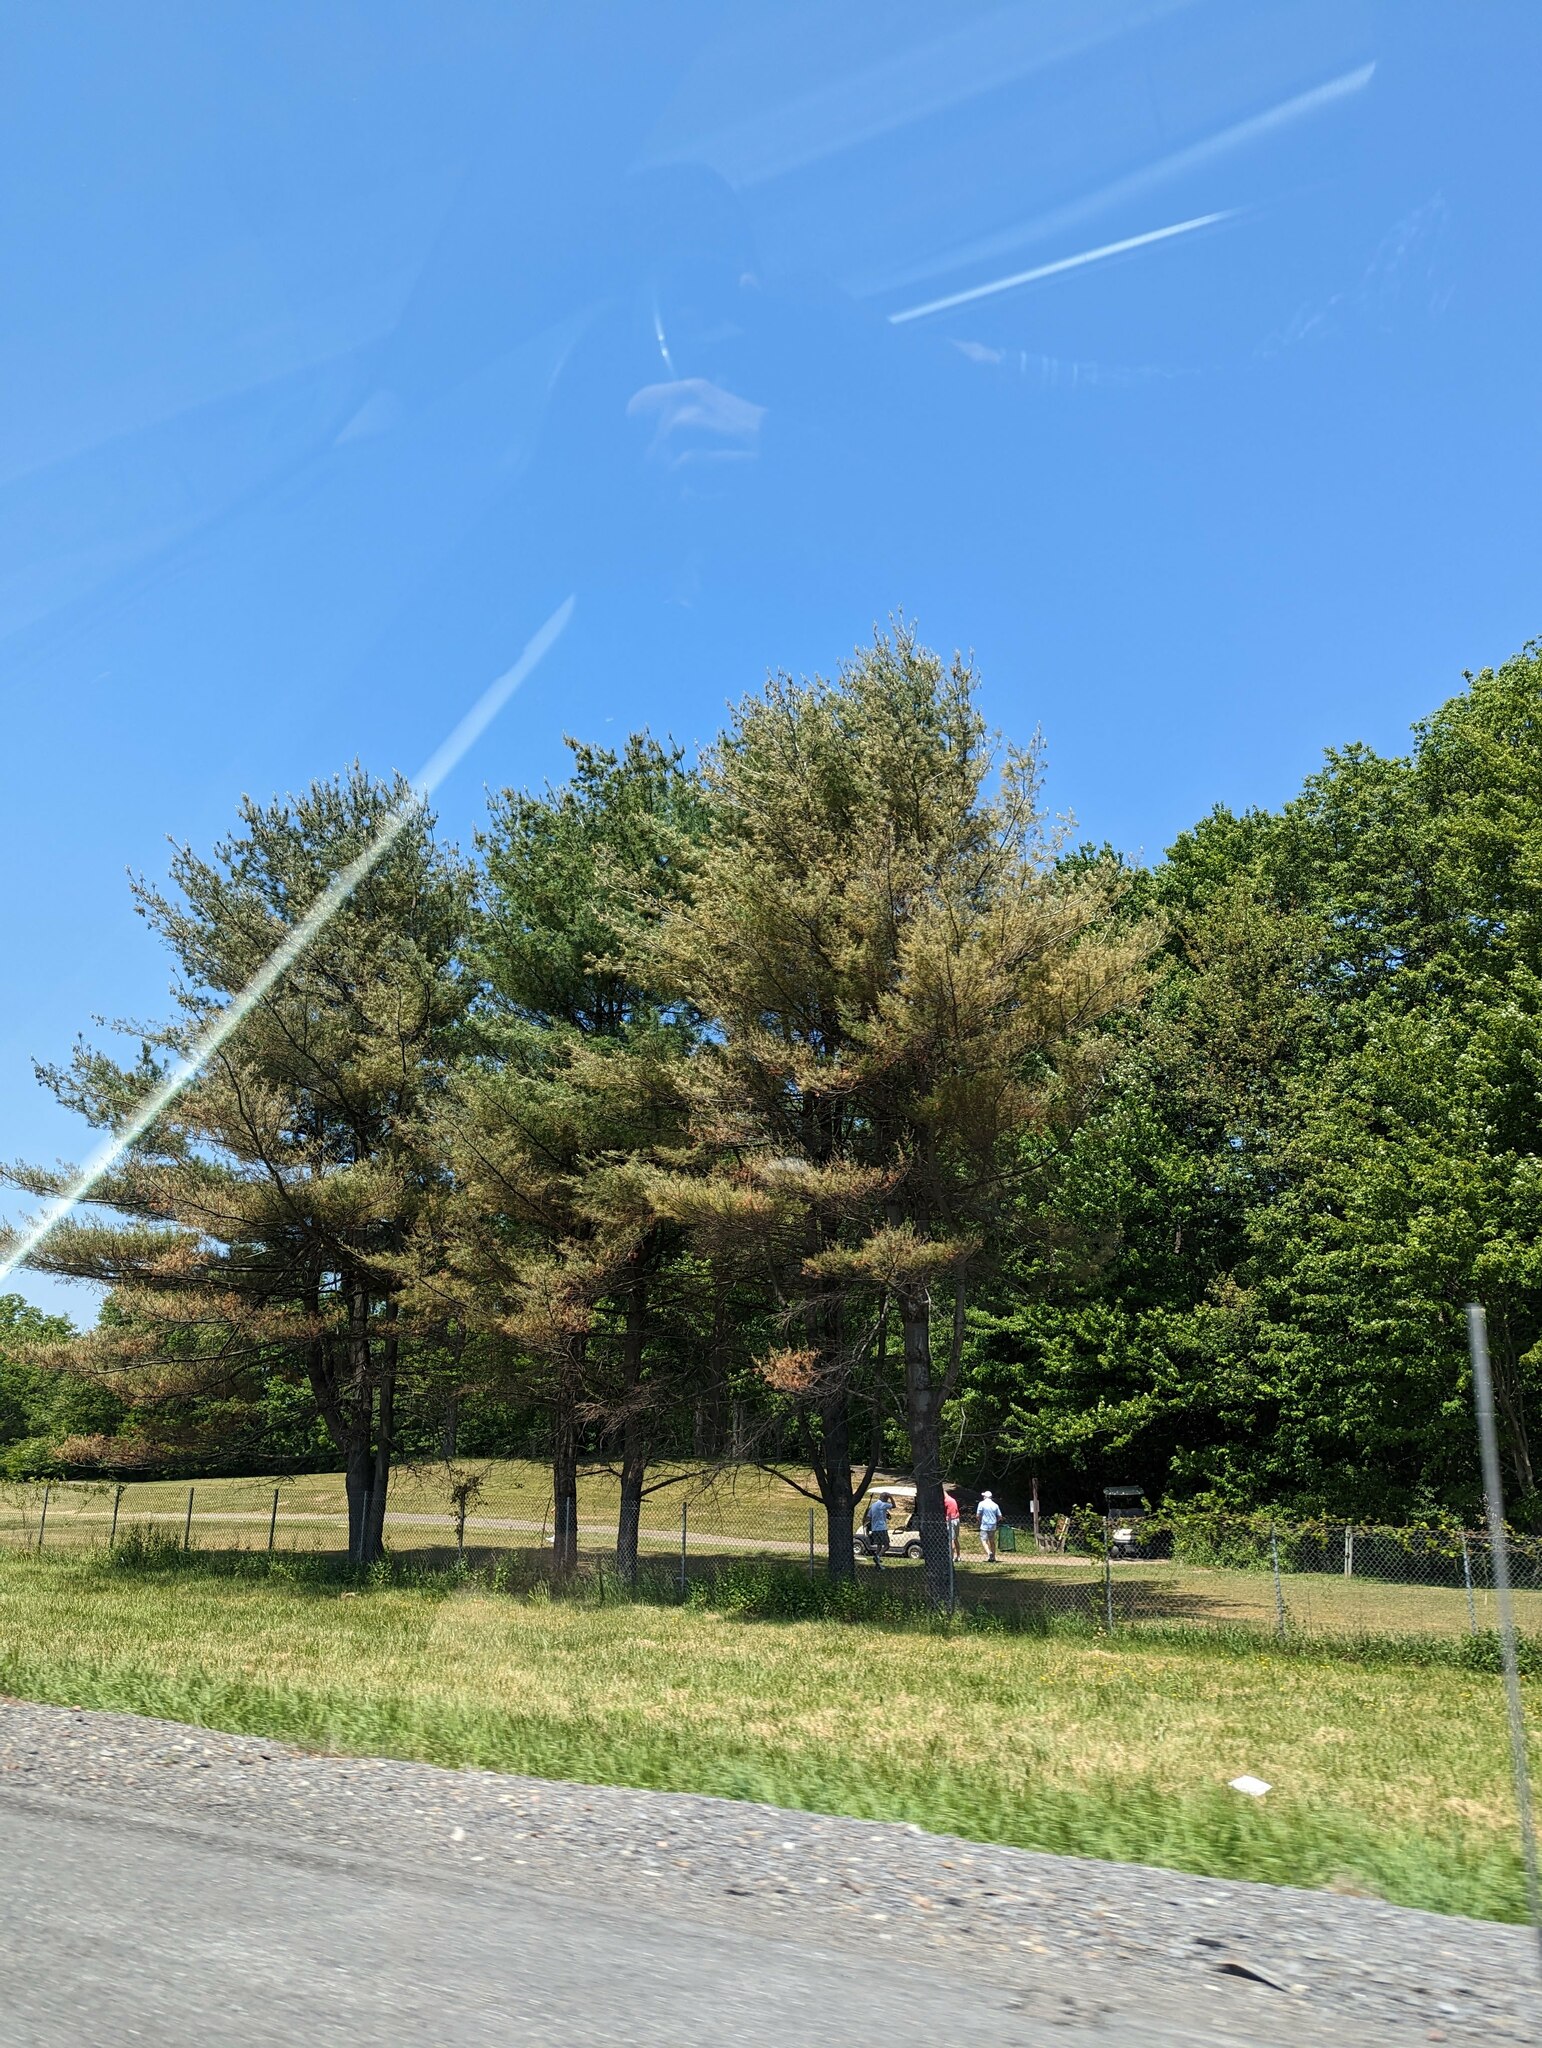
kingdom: Plantae
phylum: Tracheophyta
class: Pinopsida
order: Pinales
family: Pinaceae
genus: Pinus
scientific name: Pinus strobus
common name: Weymouth pine
